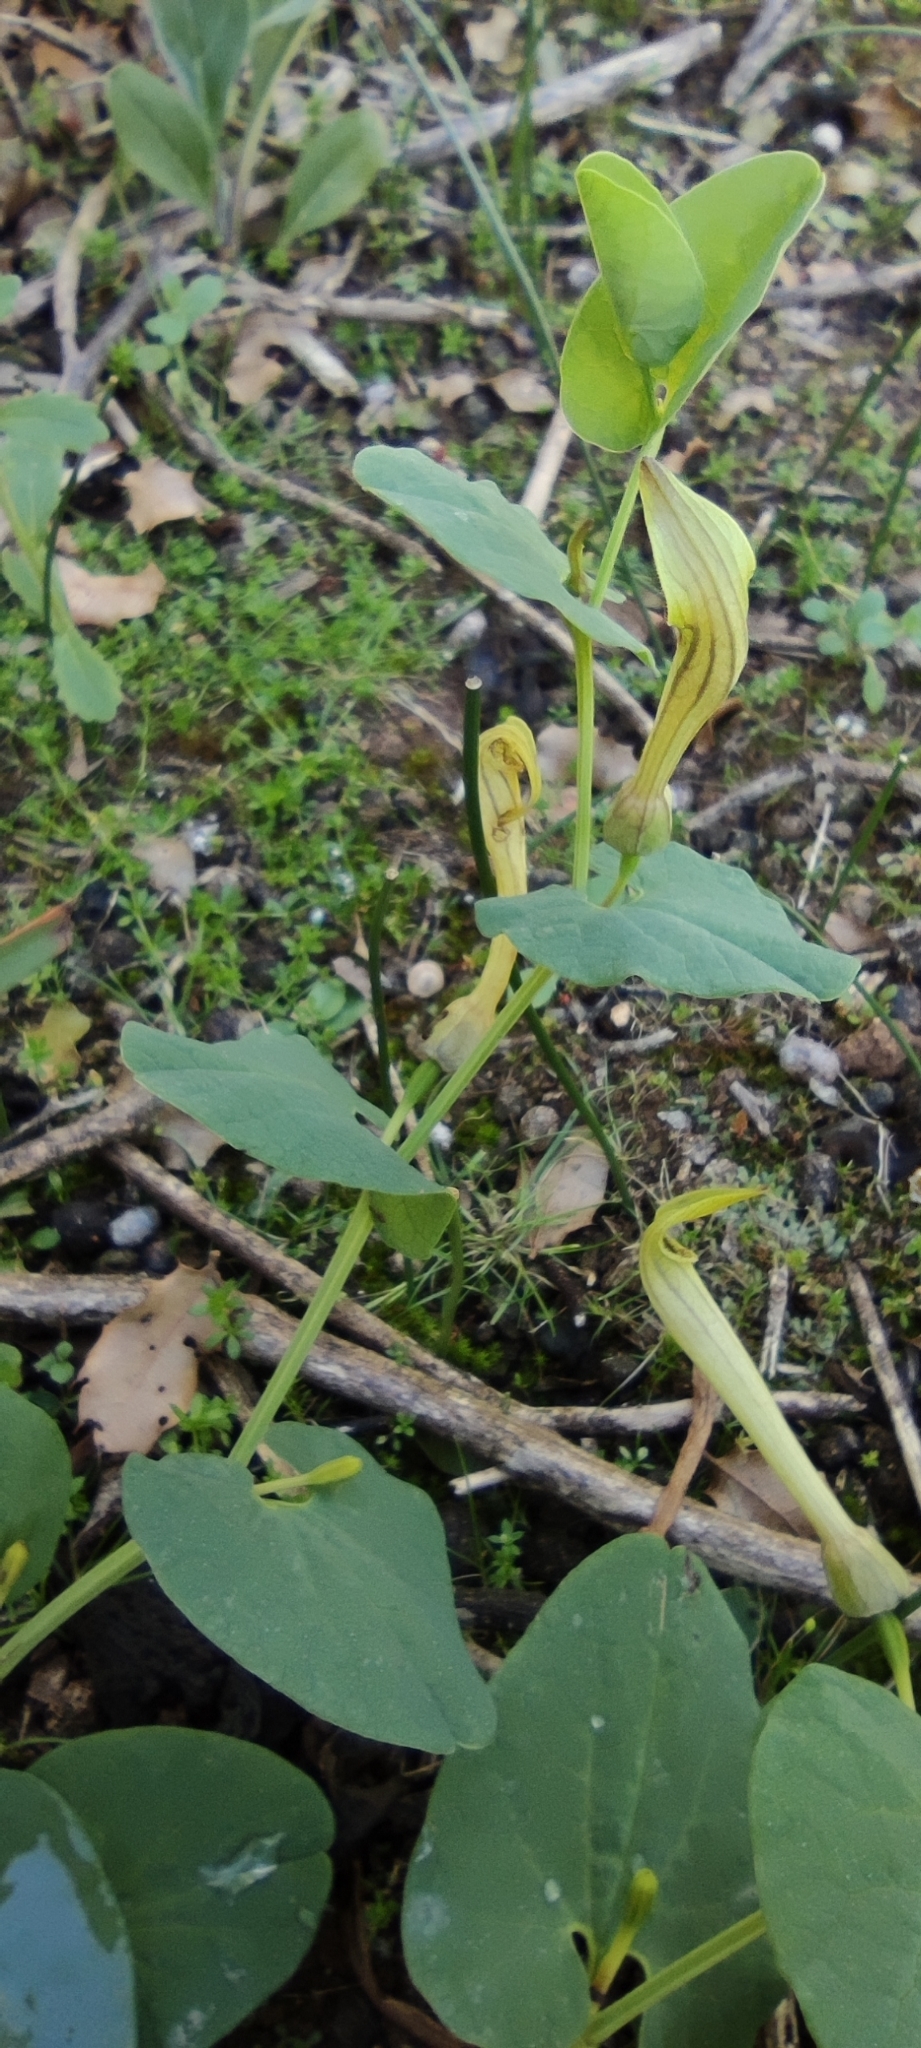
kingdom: Plantae
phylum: Tracheophyta
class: Magnoliopsida
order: Piperales
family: Aristolochiaceae
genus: Aristolochia
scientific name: Aristolochia paucinervis
